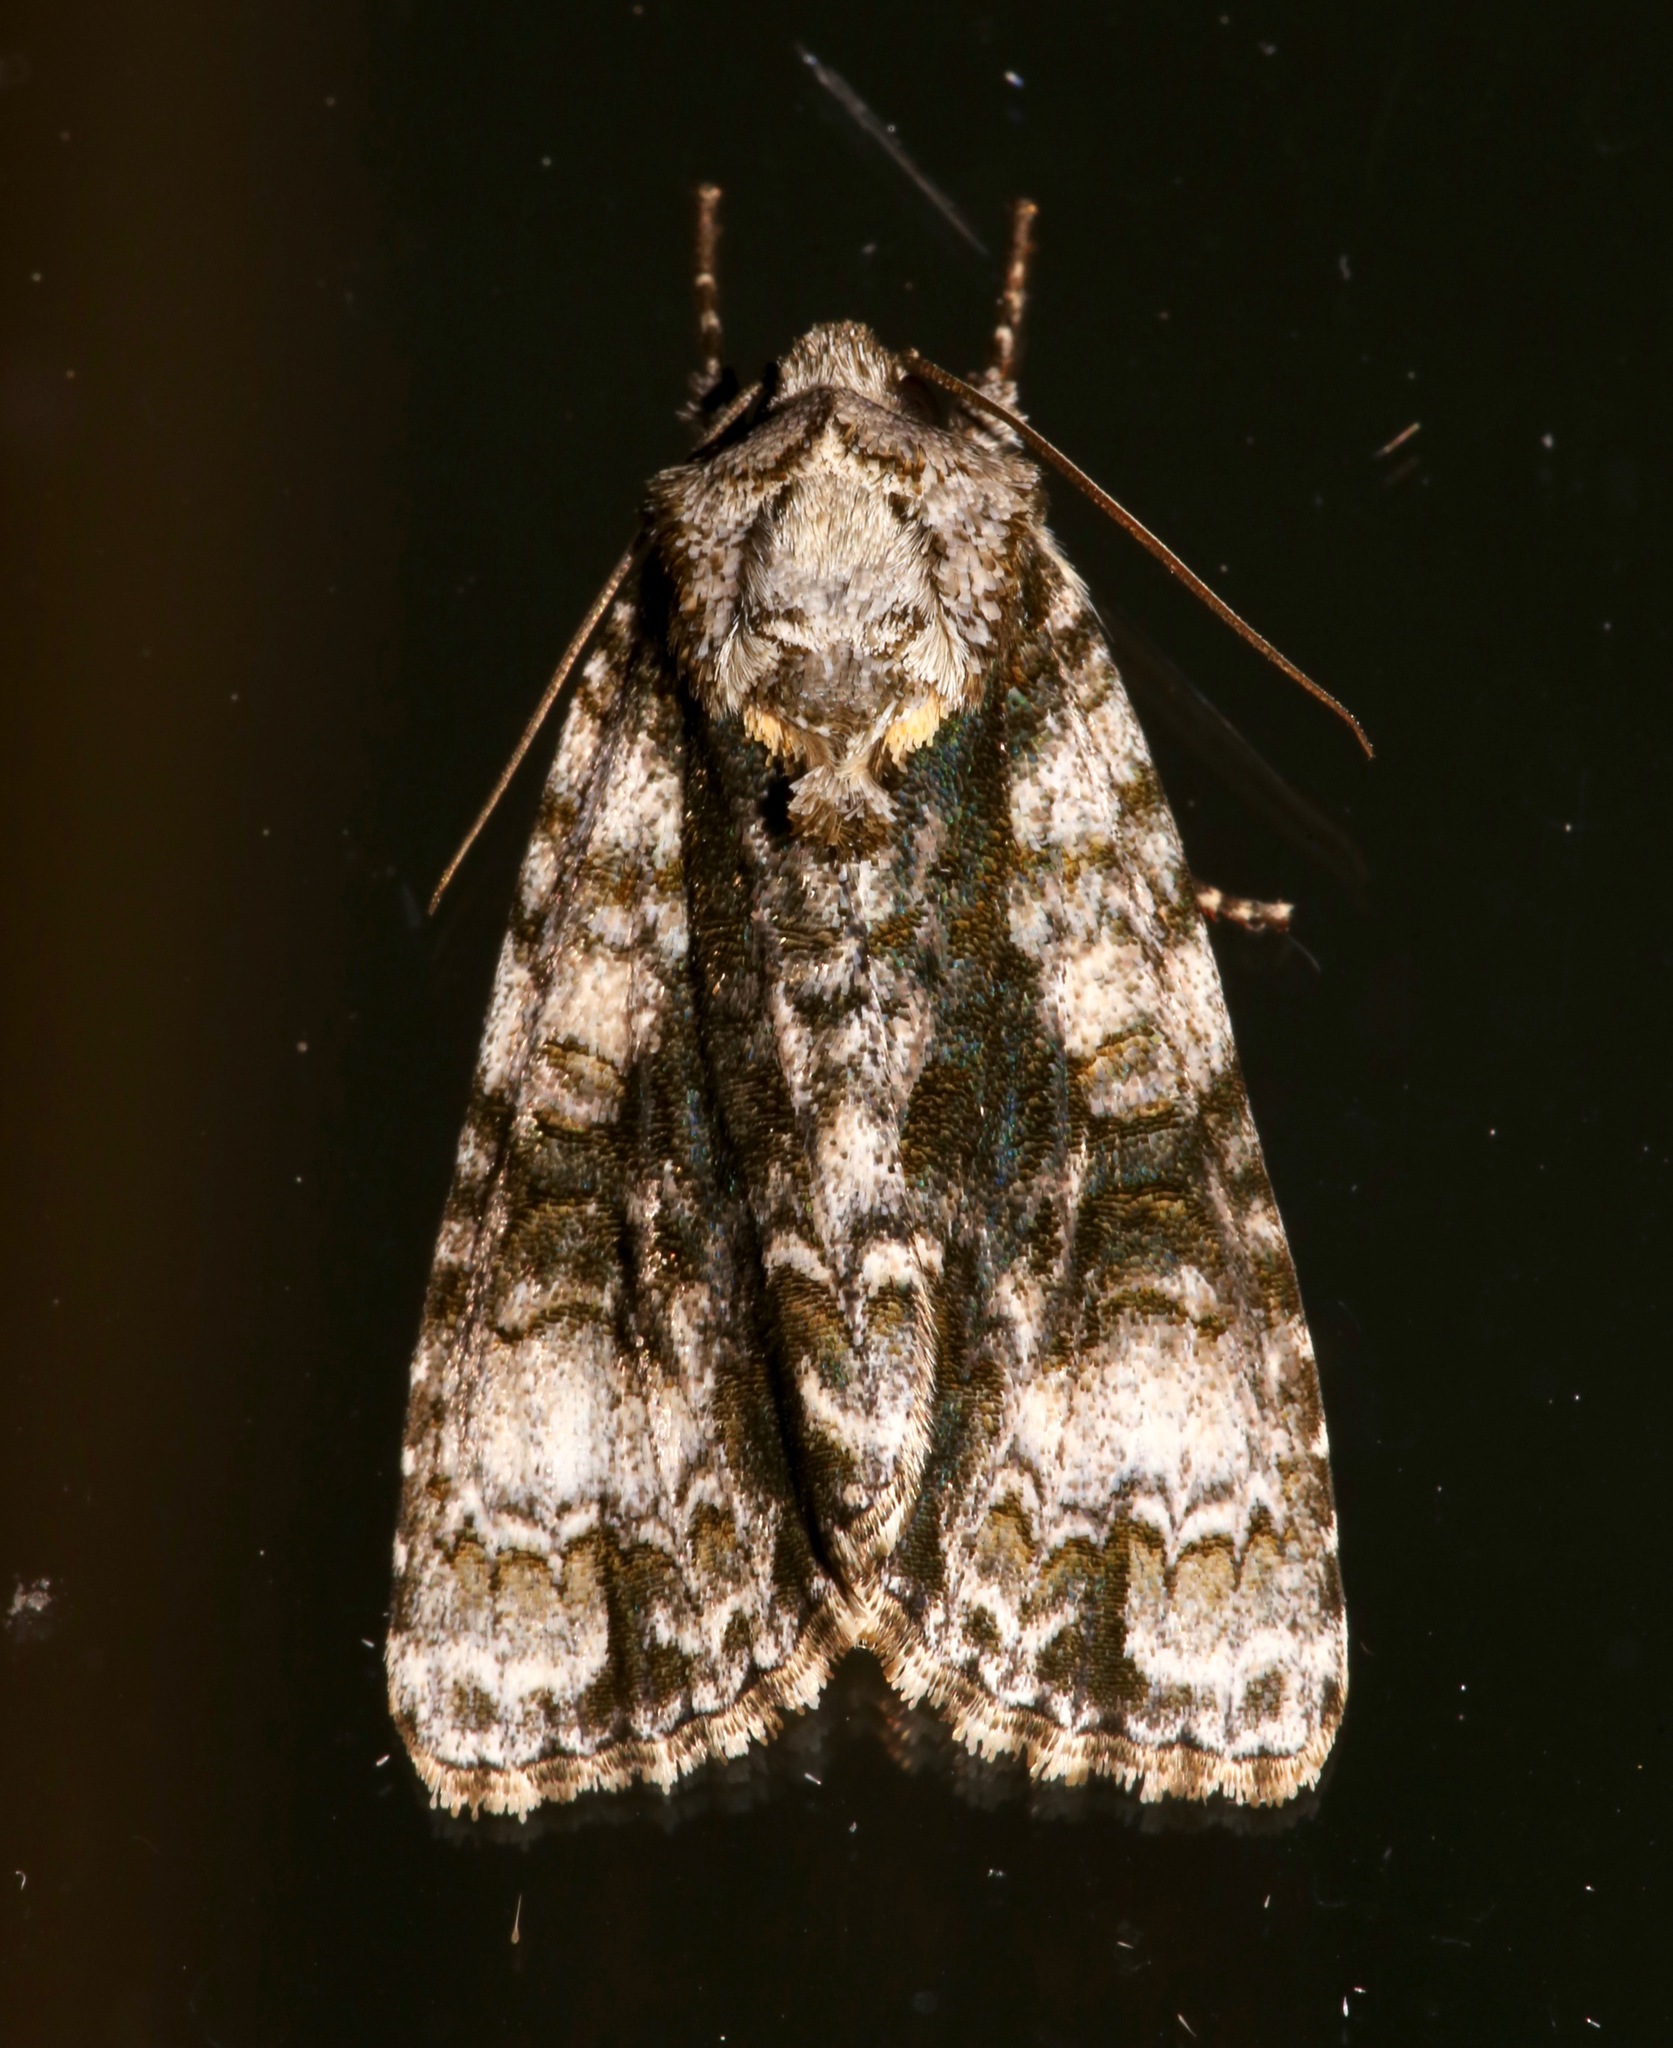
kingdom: Animalia
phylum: Arthropoda
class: Insecta
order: Lepidoptera
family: Noctuidae
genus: Acronicta
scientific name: Acronicta superans
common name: Splendid dagger
